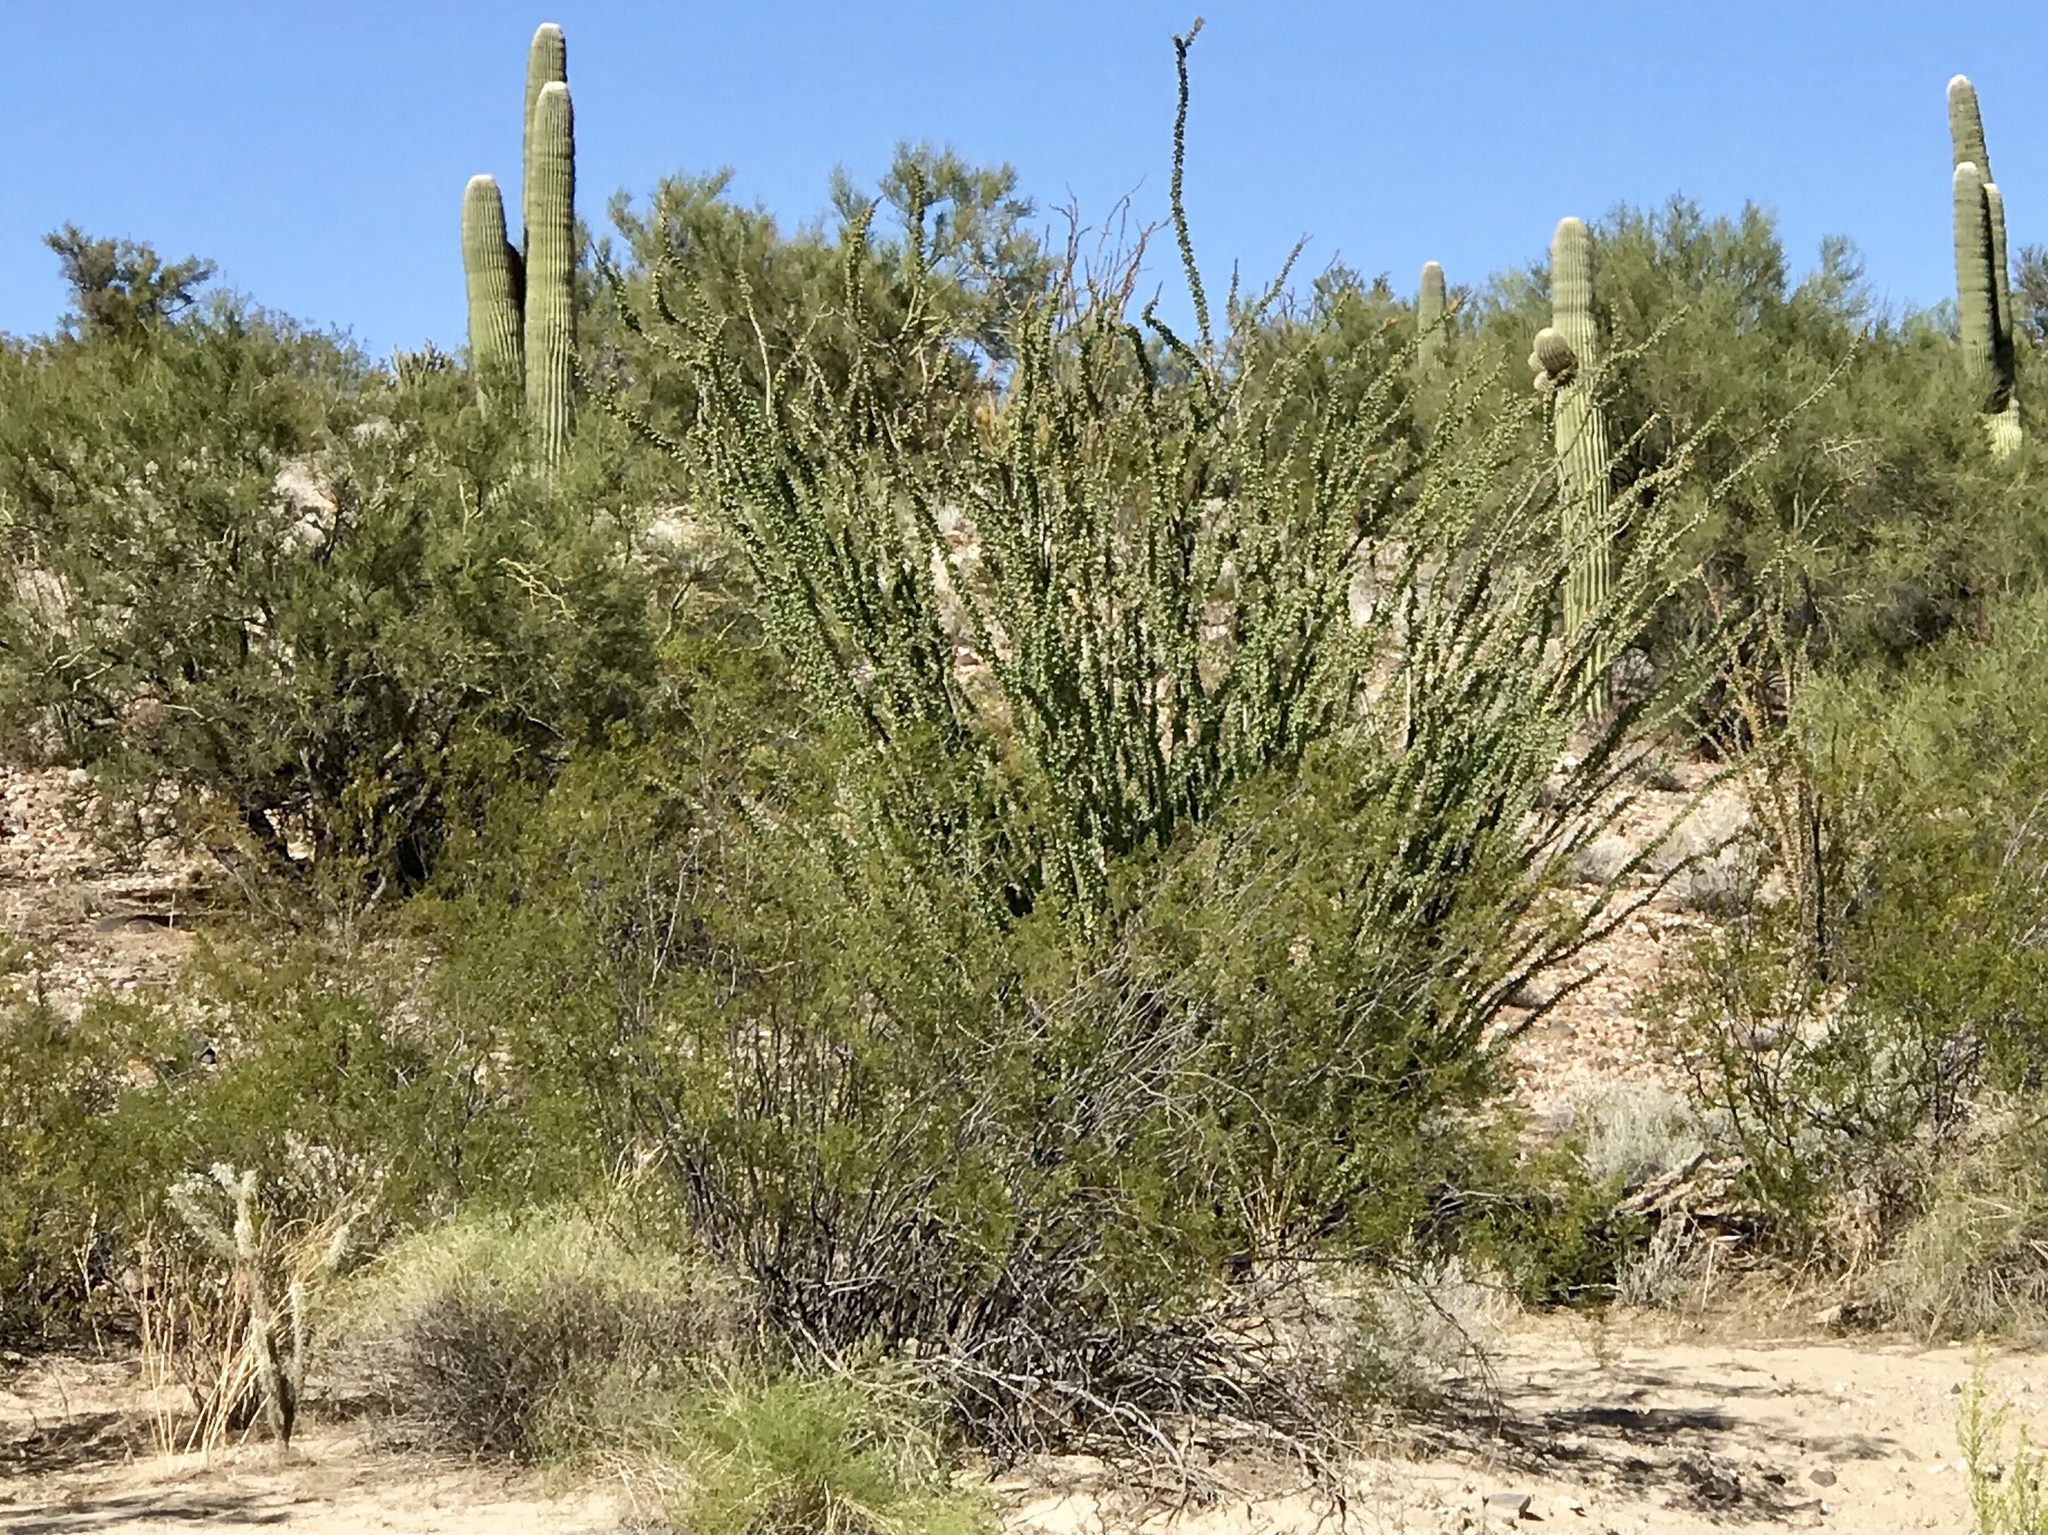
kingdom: Plantae
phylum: Tracheophyta
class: Magnoliopsida
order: Ericales
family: Fouquieriaceae
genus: Fouquieria
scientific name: Fouquieria splendens
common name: Vine-cactus
